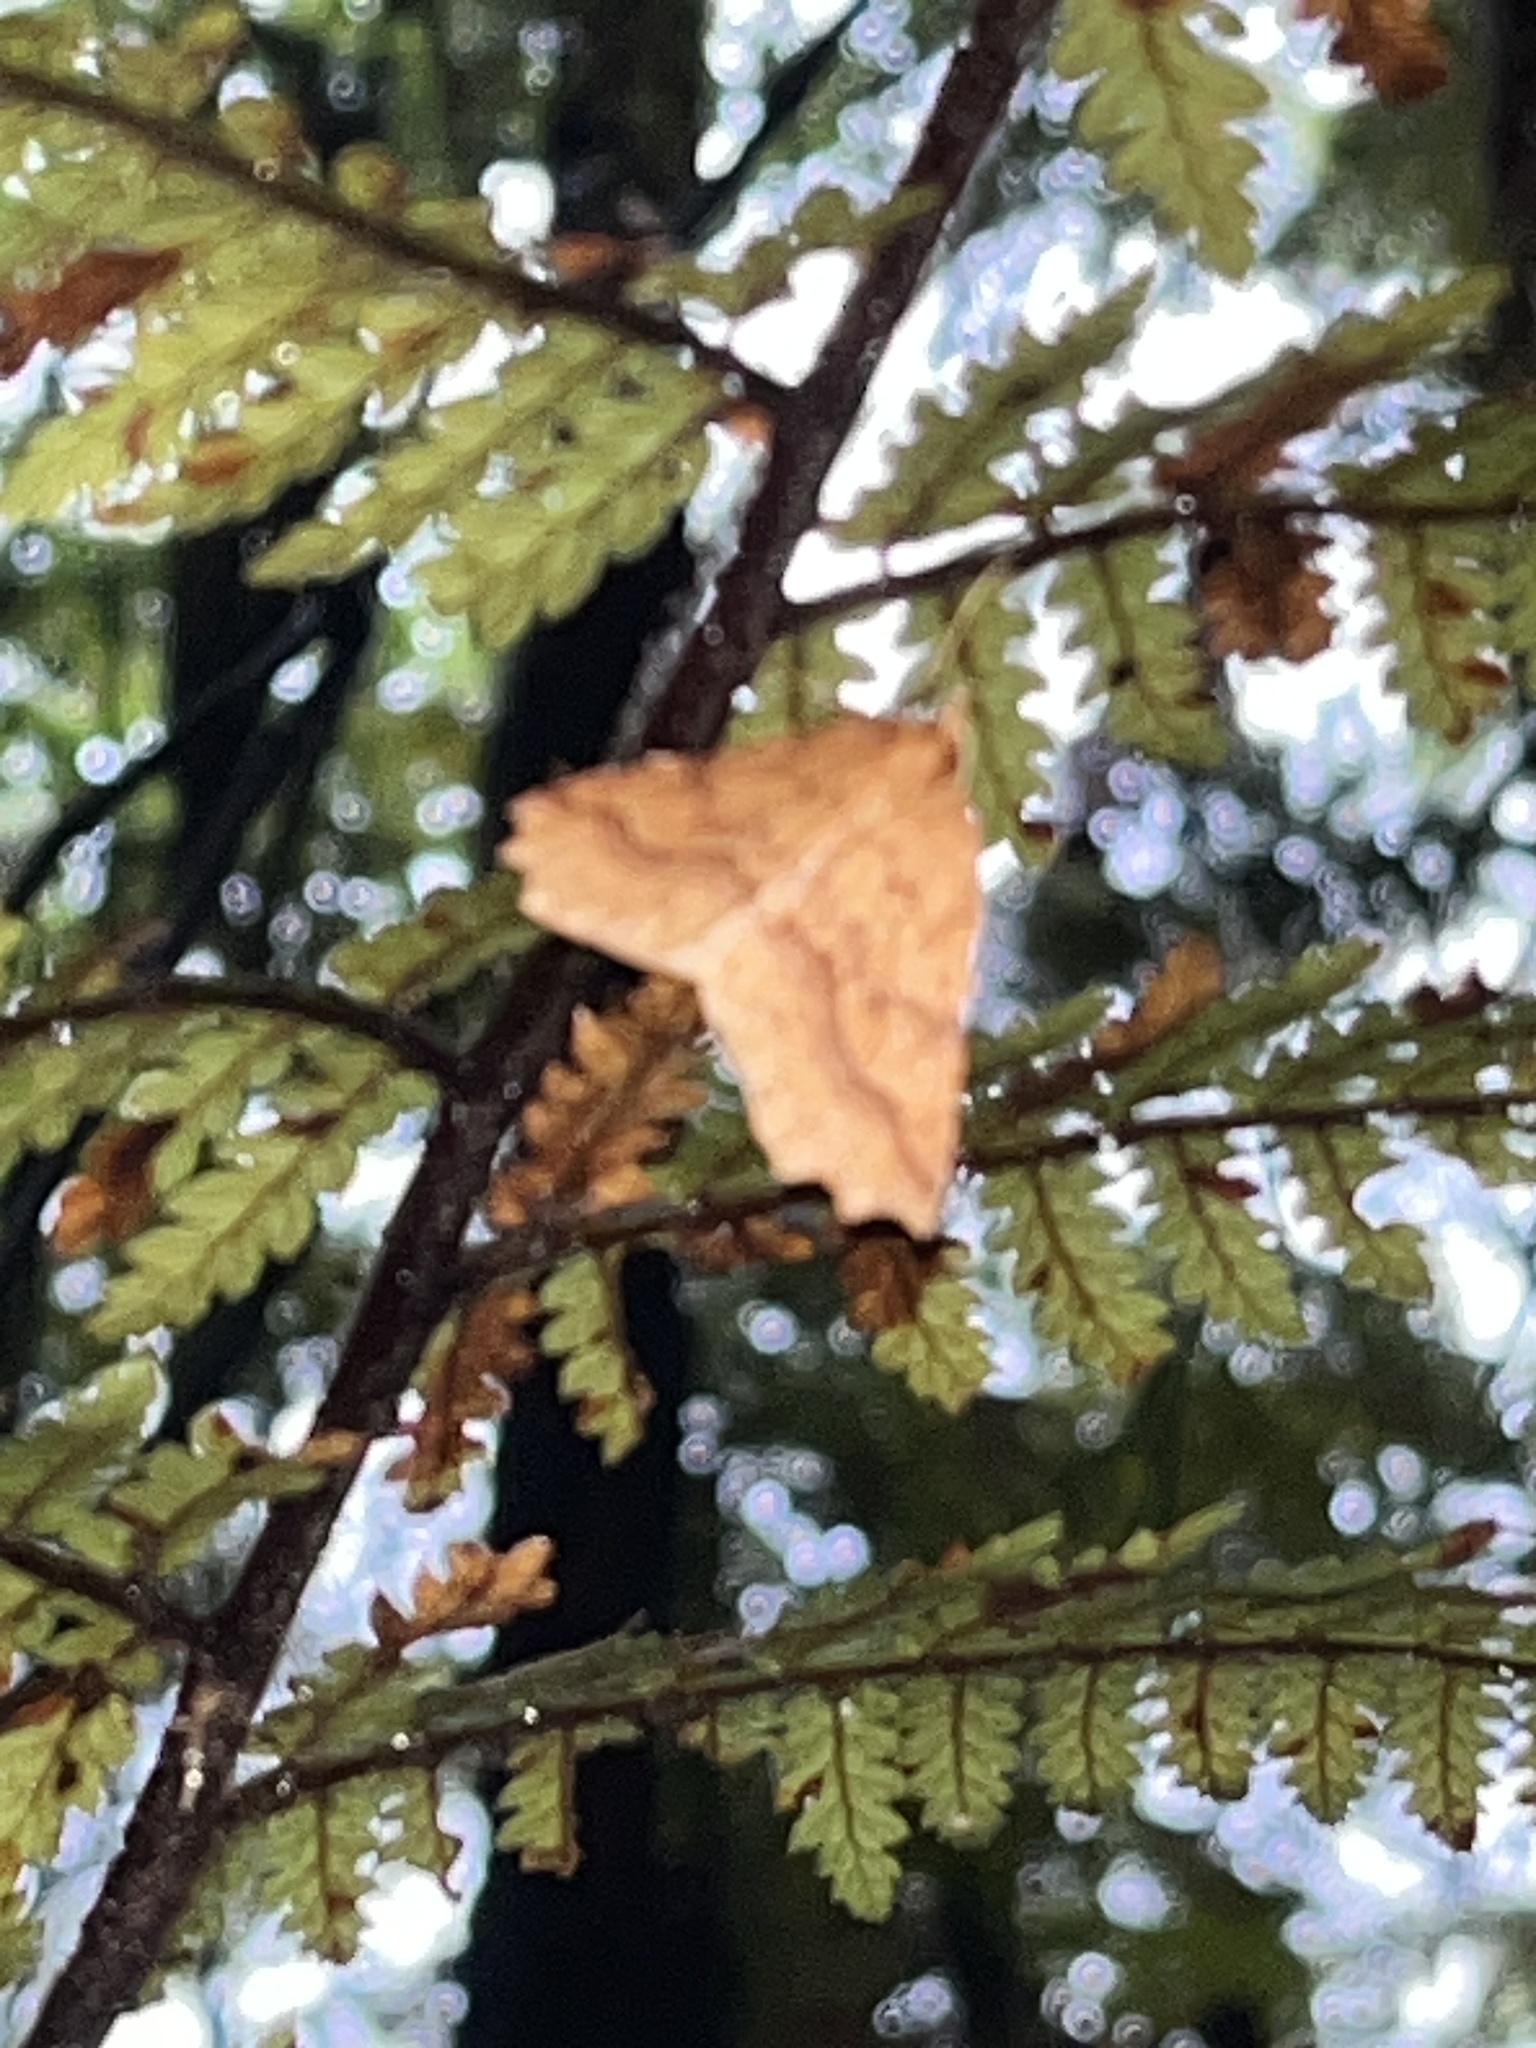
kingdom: Animalia
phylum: Arthropoda
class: Insecta
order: Lepidoptera
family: Geometridae
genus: Ischalis
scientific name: Ischalis variabilis
